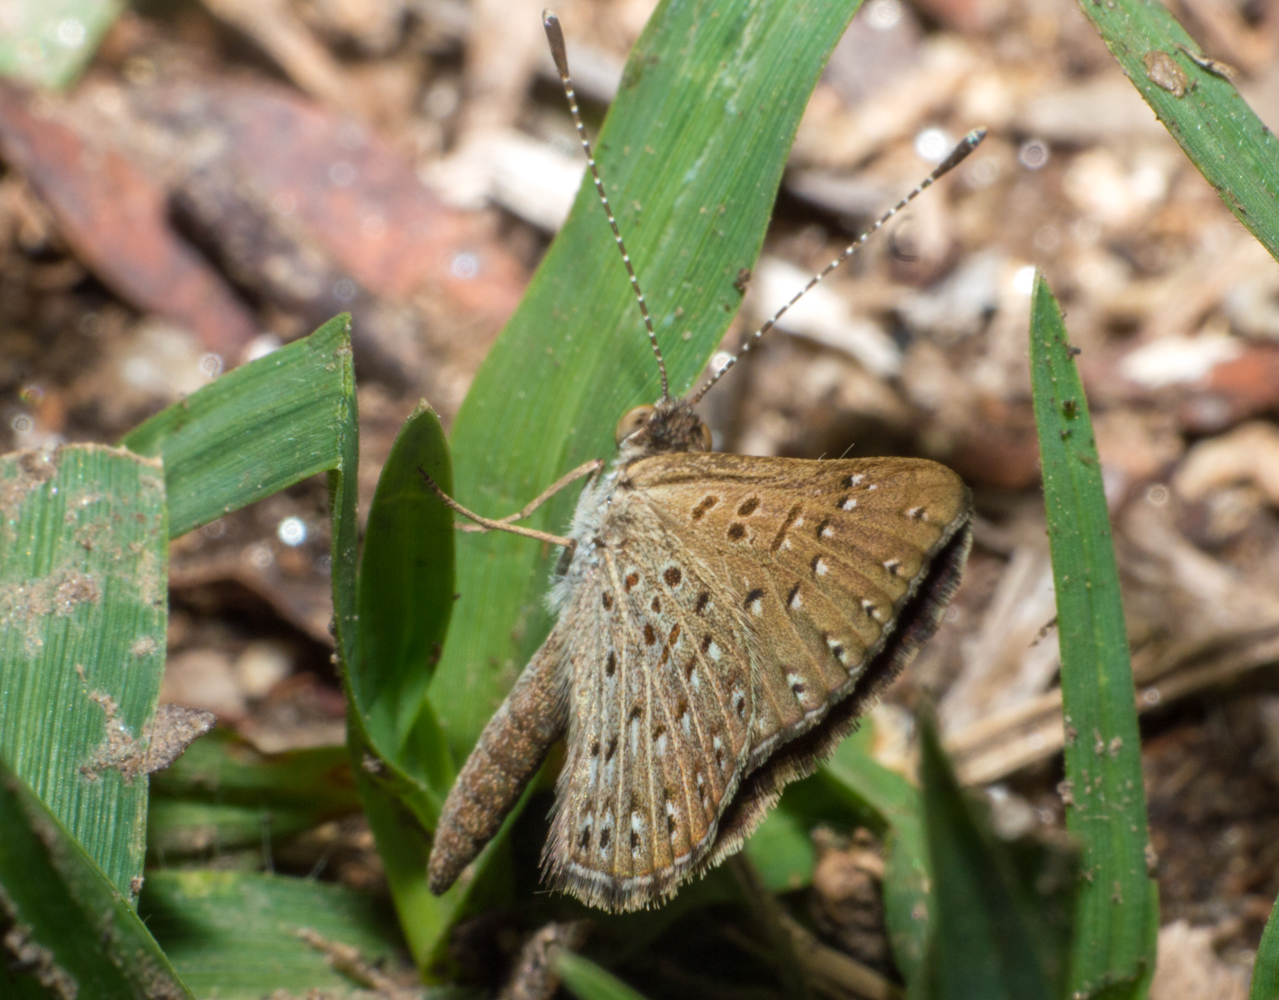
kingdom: Animalia
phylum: Arthropoda
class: Insecta
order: Lepidoptera
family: Riodinidae
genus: Zabuella
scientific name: Zabuella tenellus
